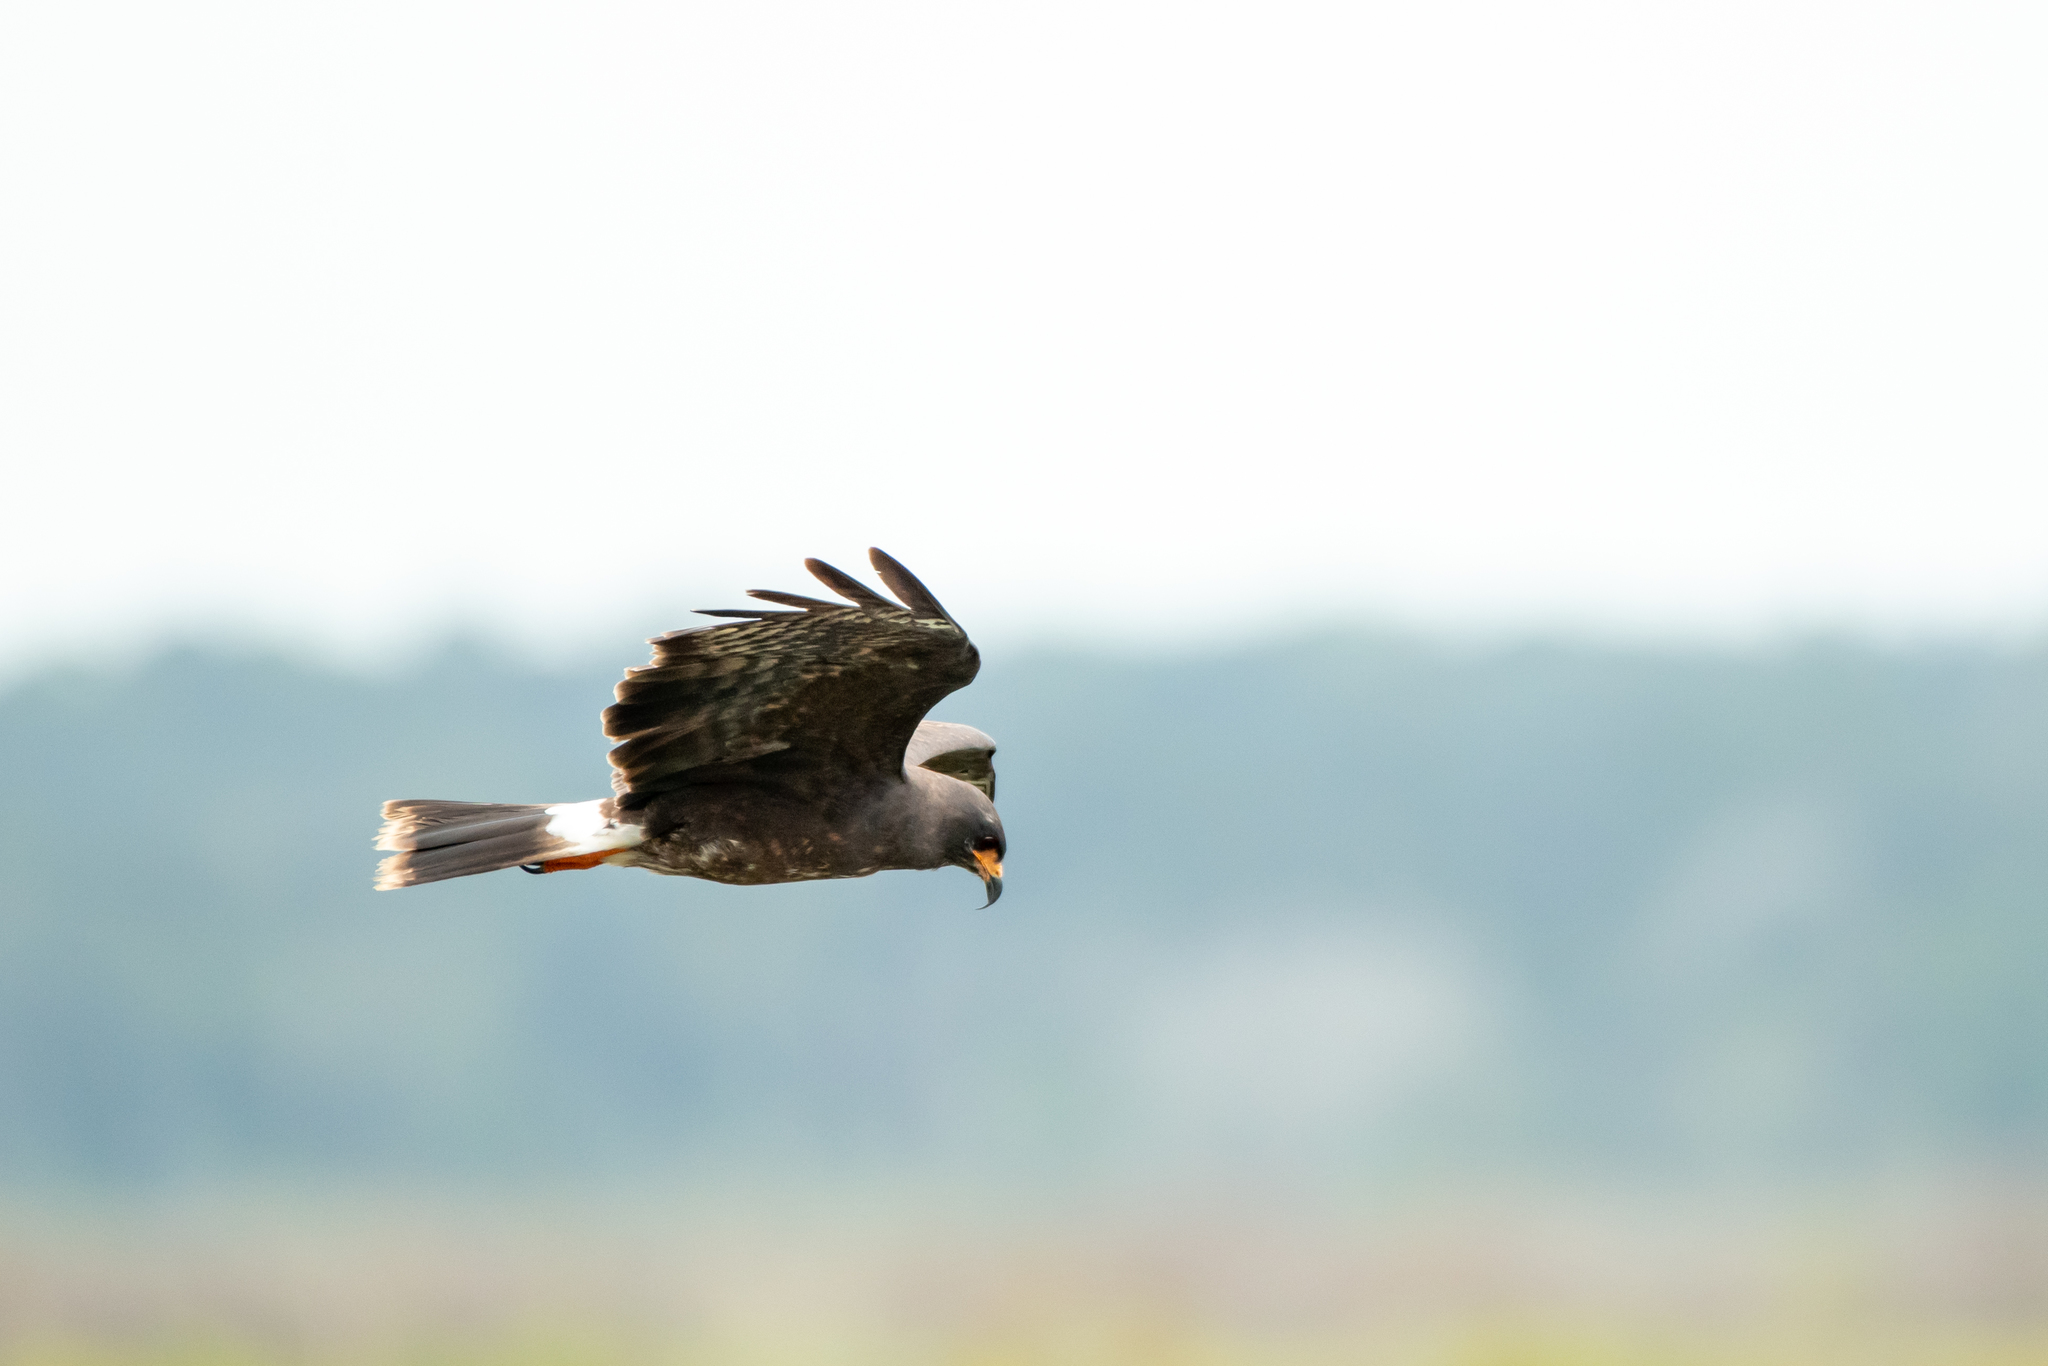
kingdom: Animalia
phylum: Chordata
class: Aves
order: Accipitriformes
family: Accipitridae
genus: Rostrhamus
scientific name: Rostrhamus sociabilis
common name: Snail kite
